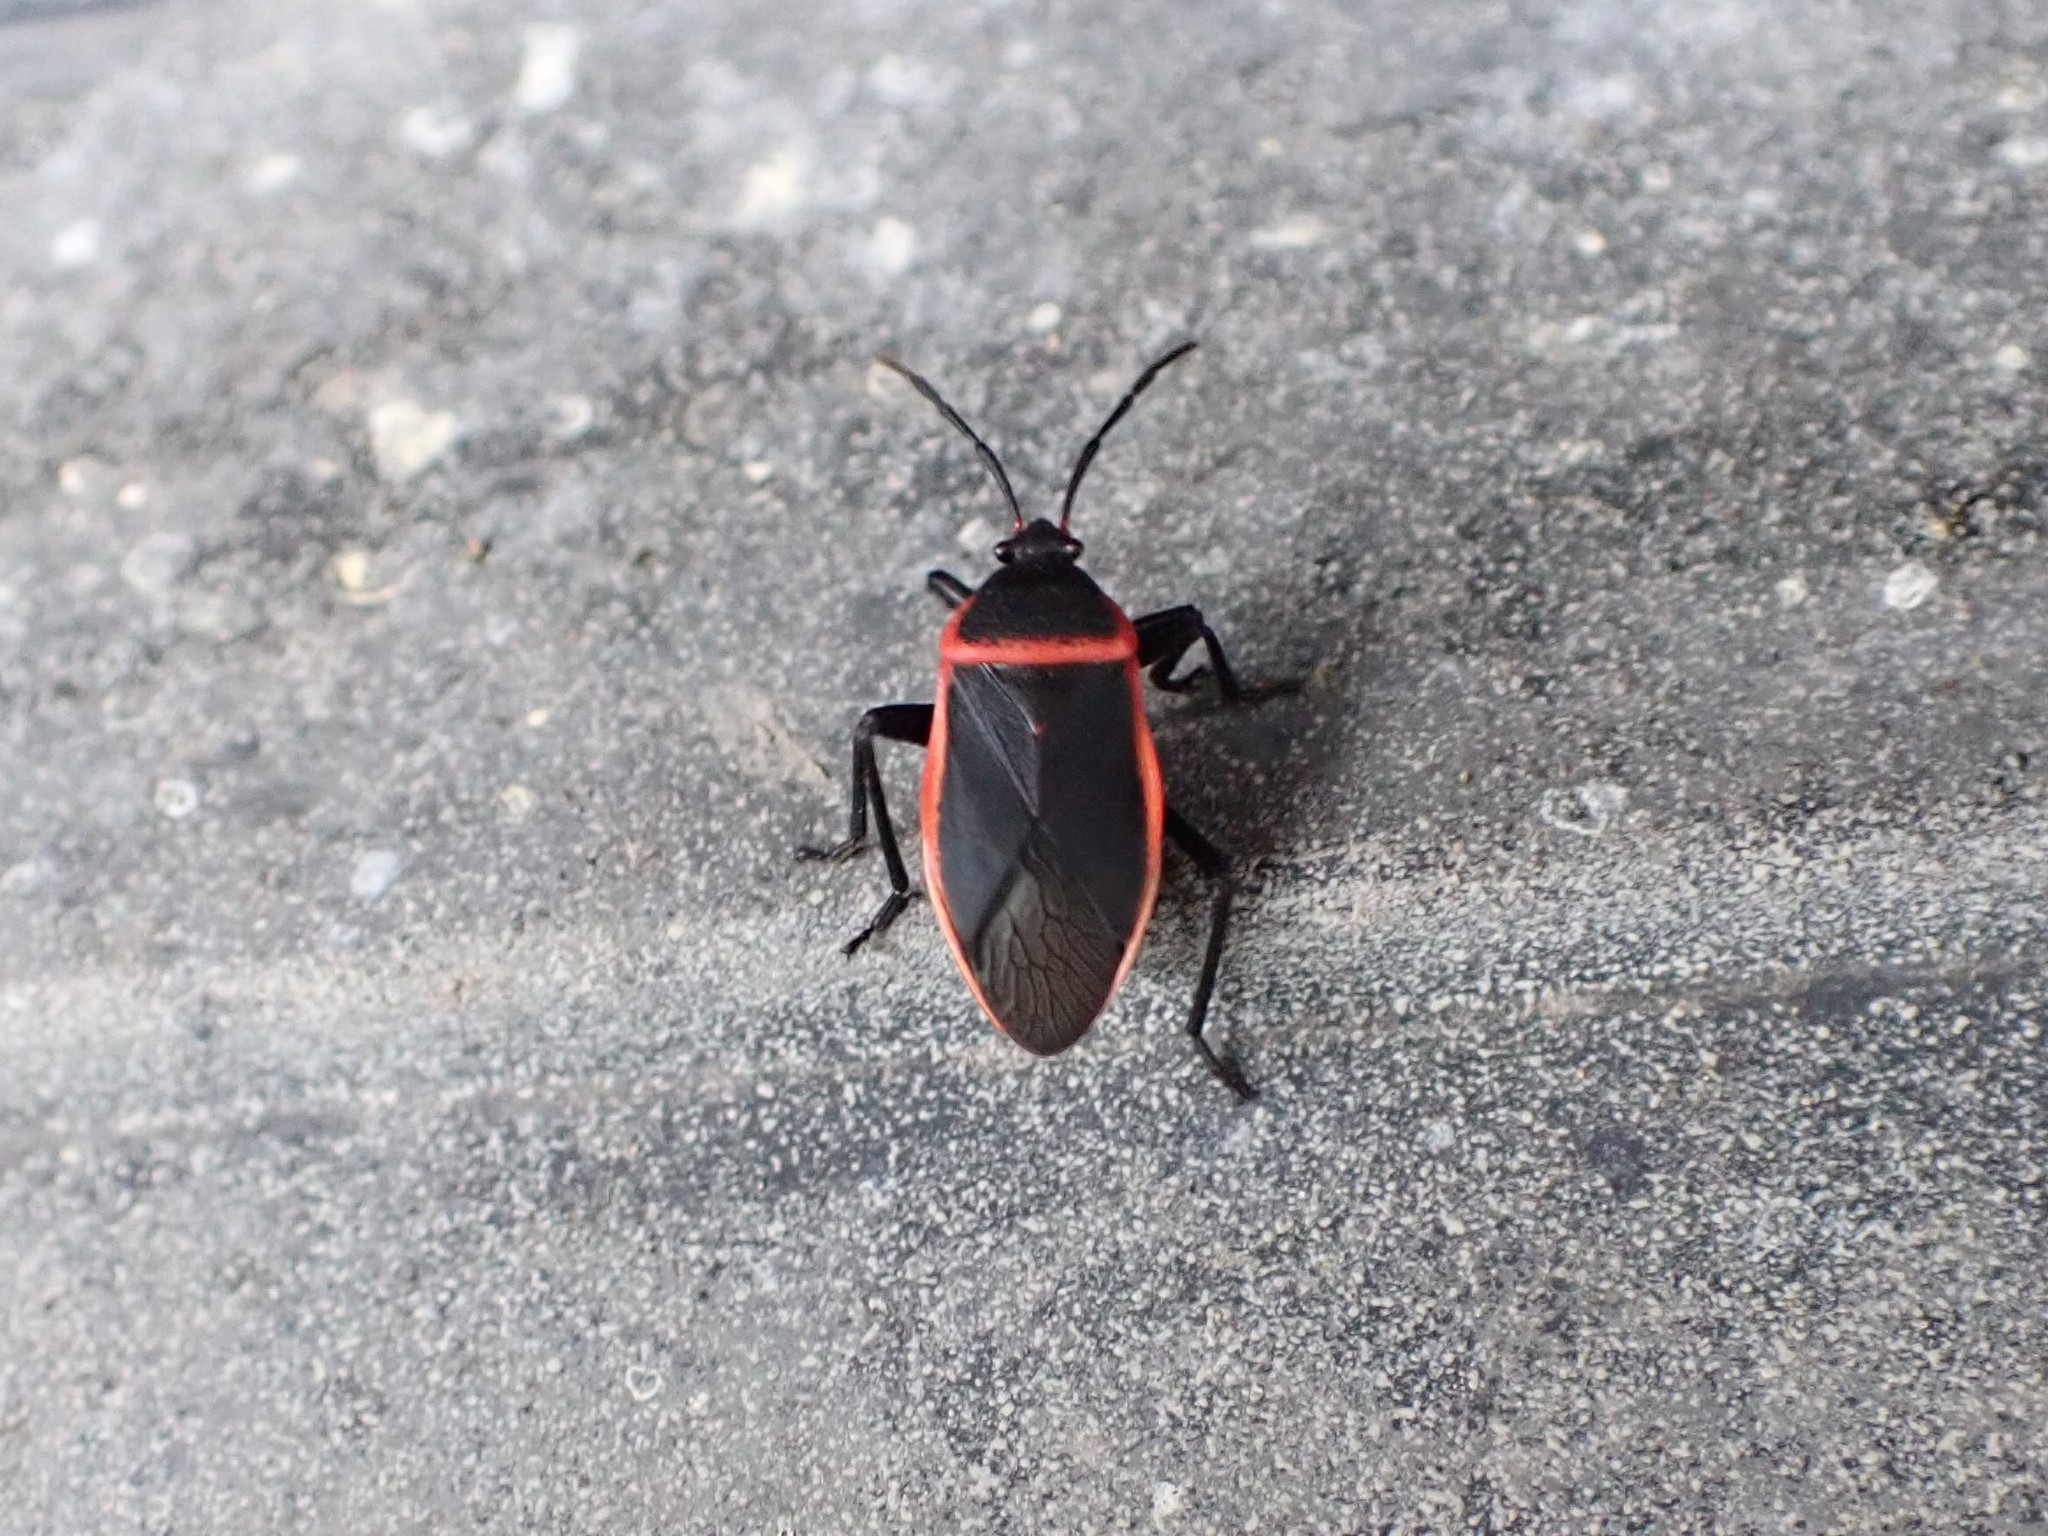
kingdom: Animalia
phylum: Arthropoda
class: Insecta
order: Hemiptera
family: Largidae
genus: Largus
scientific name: Largus
